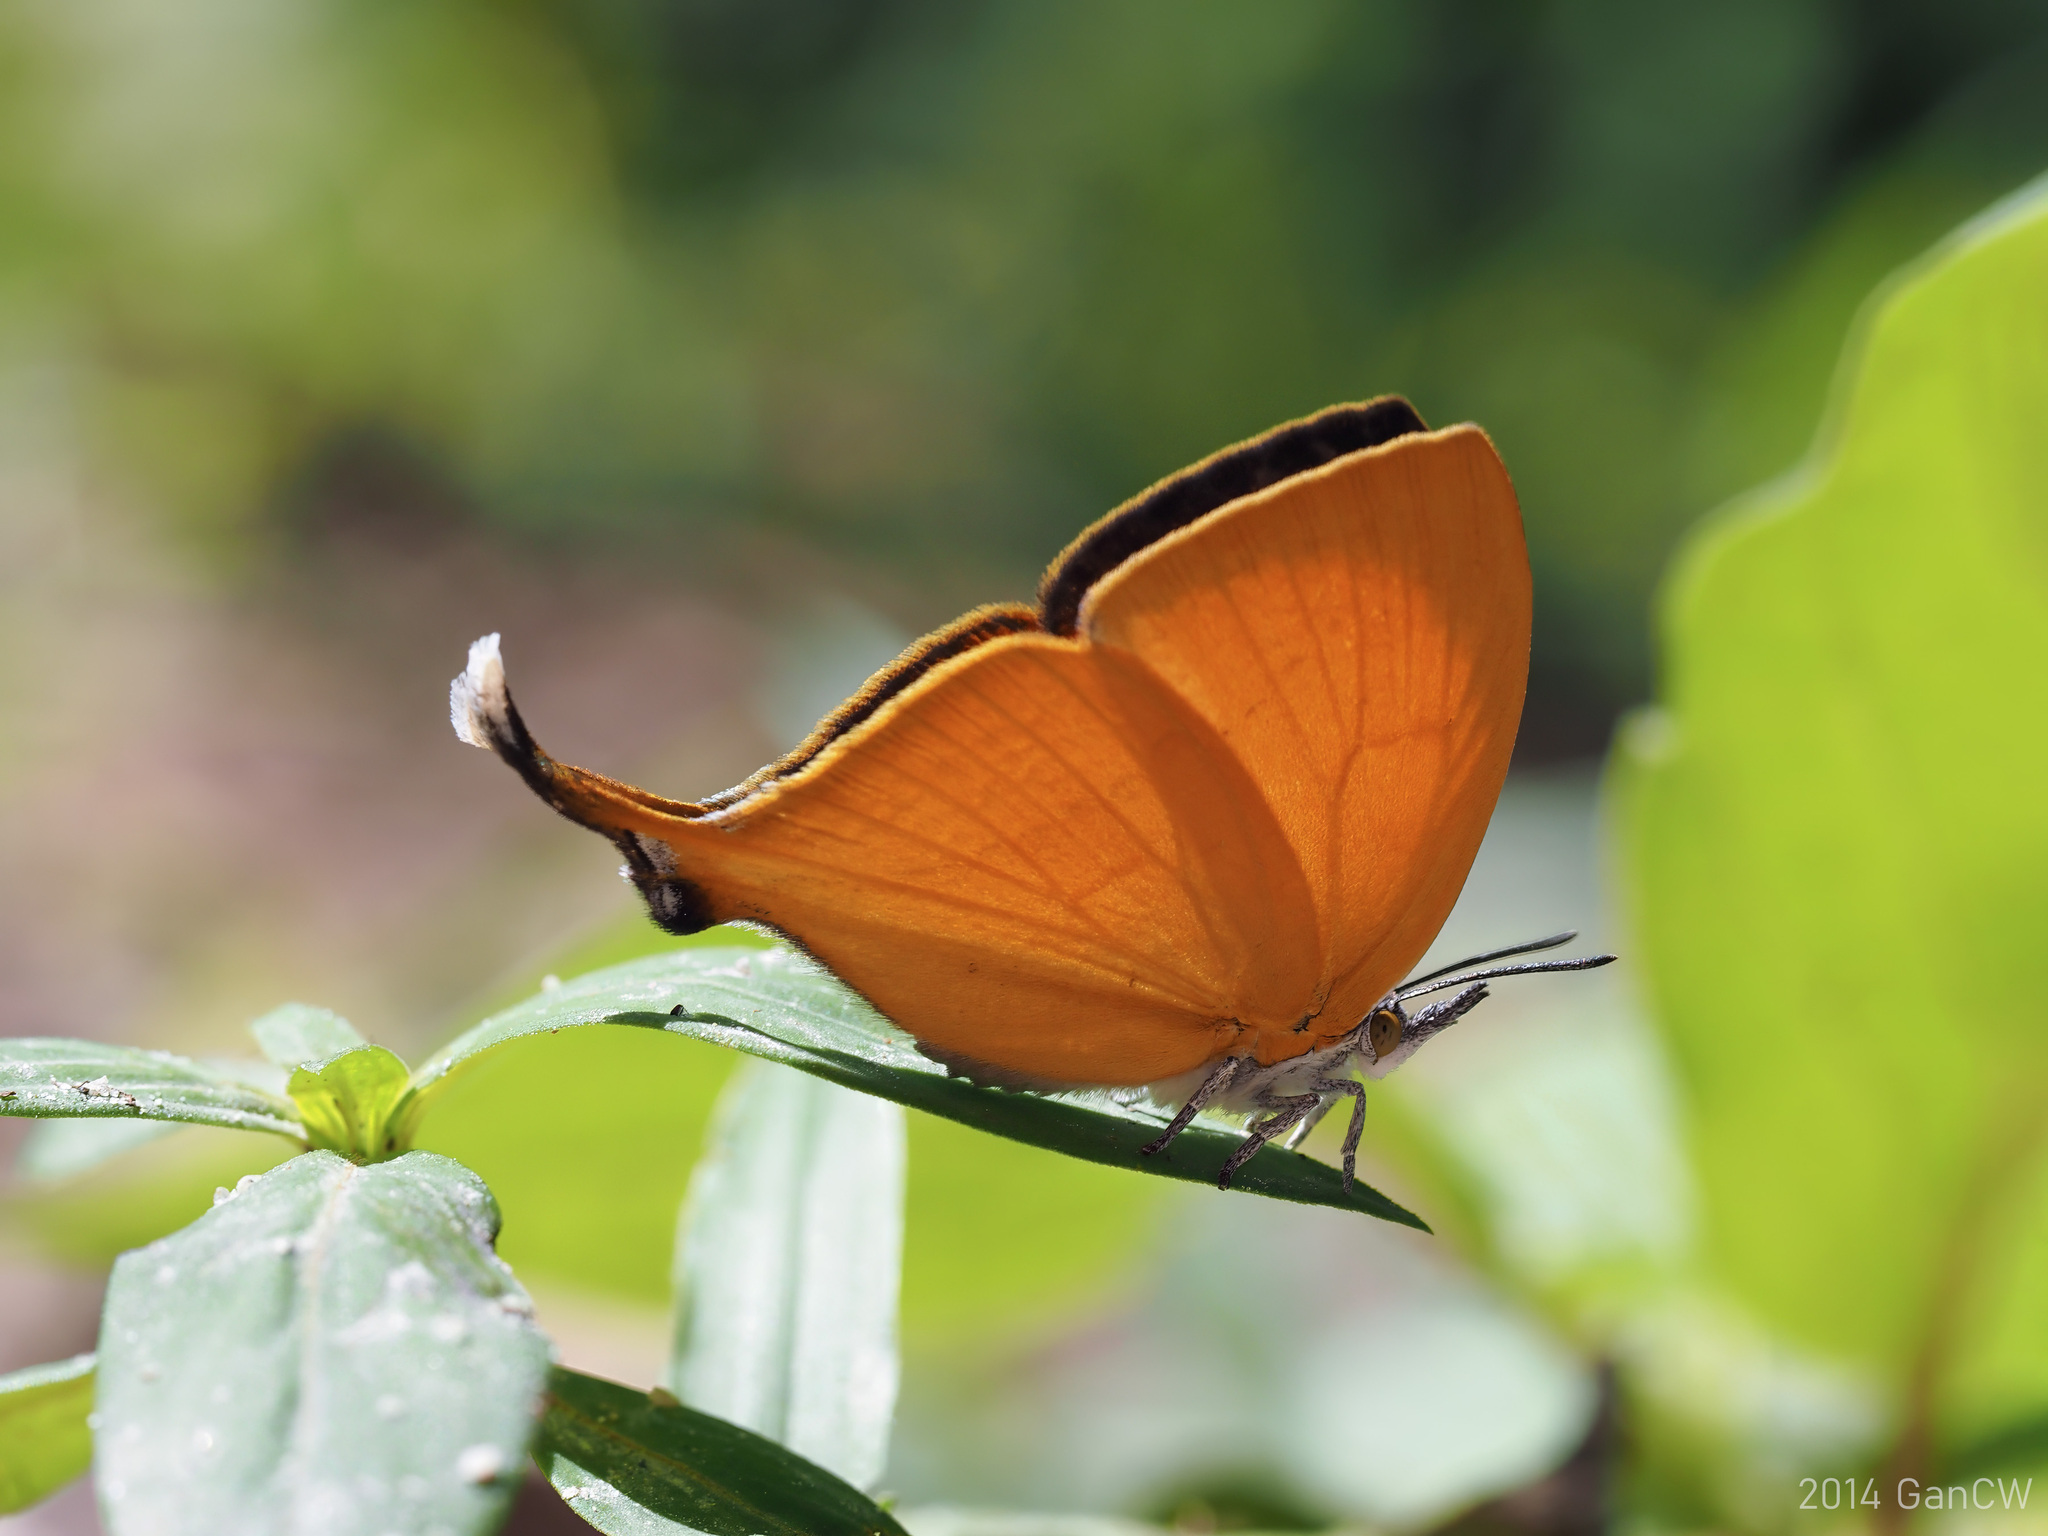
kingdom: Animalia
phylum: Arthropoda
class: Insecta
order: Lepidoptera
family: Lycaenidae
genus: Loxura
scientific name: Loxura atymnus
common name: Common yamfly
